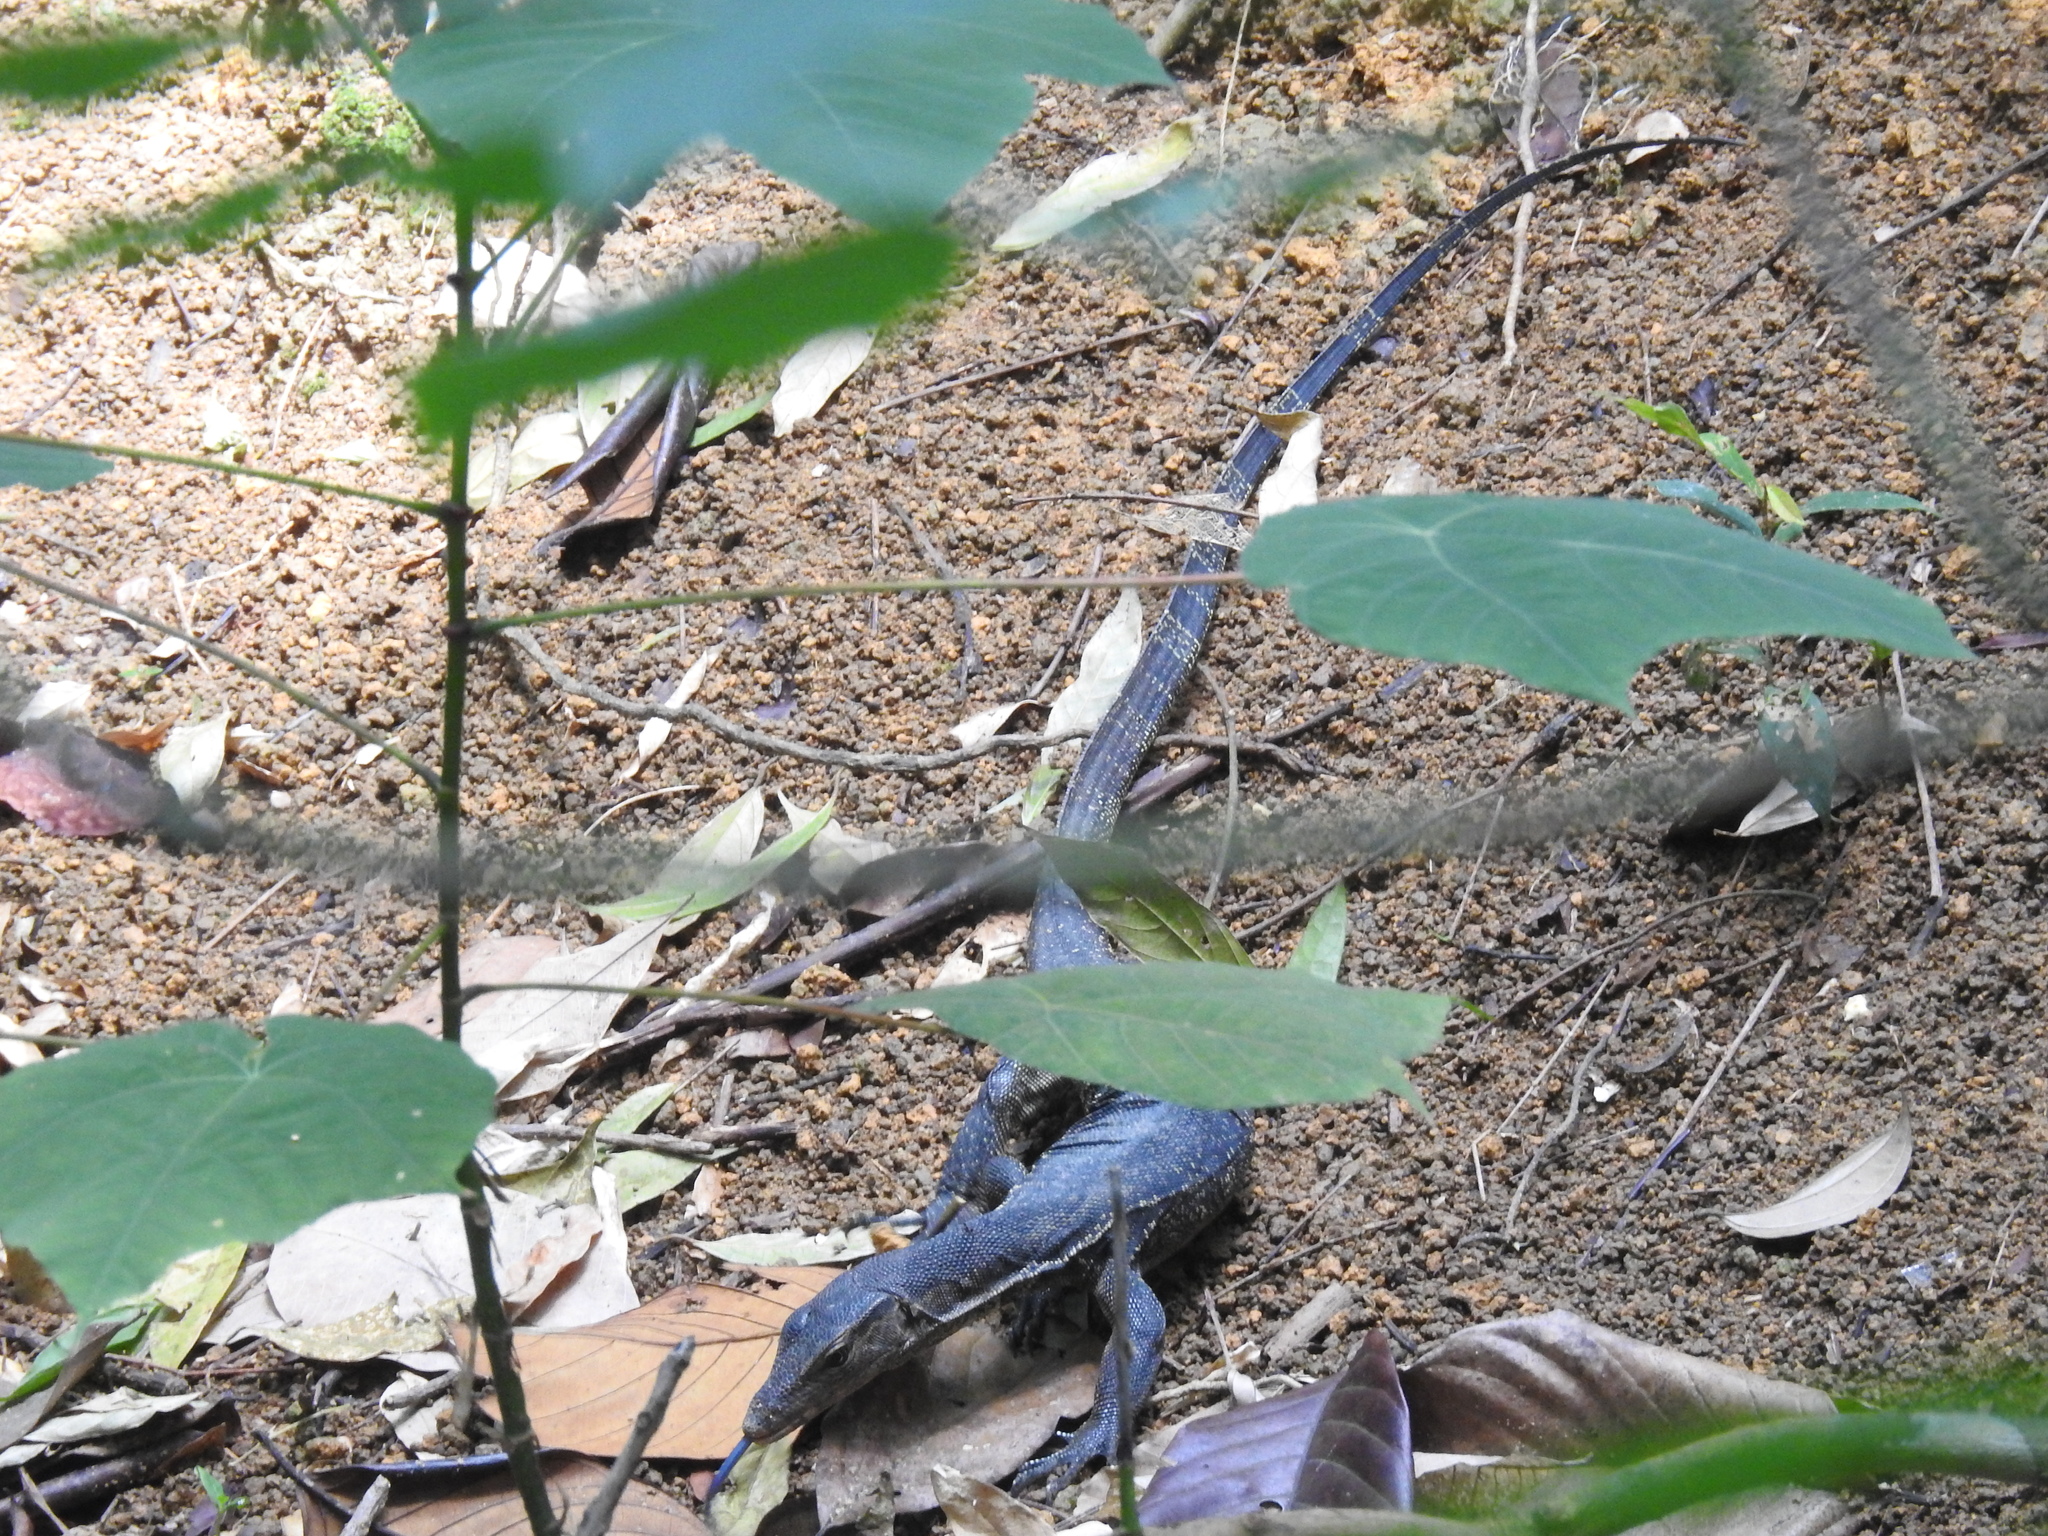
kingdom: Animalia
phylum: Chordata
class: Squamata
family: Varanidae
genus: Varanus
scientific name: Varanus salvator
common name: Common water monitor
